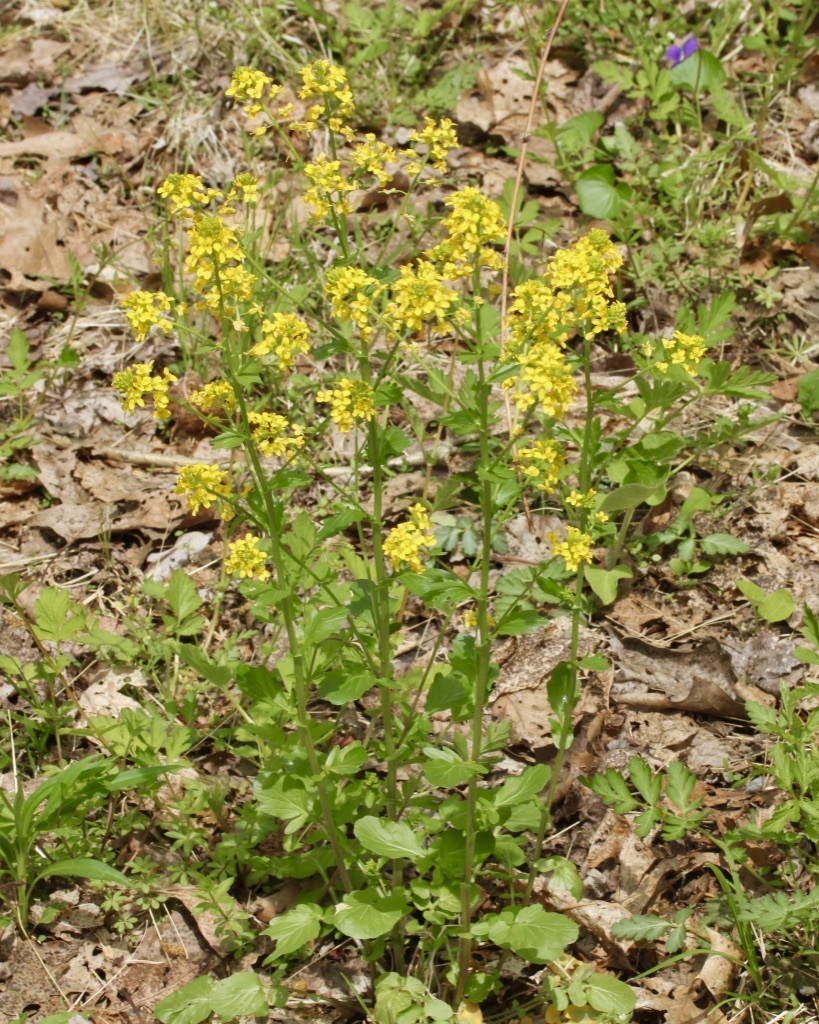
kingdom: Plantae
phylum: Tracheophyta
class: Magnoliopsida
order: Brassicales
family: Brassicaceae
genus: Barbarea
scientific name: Barbarea vulgaris
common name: Cressy-greens
